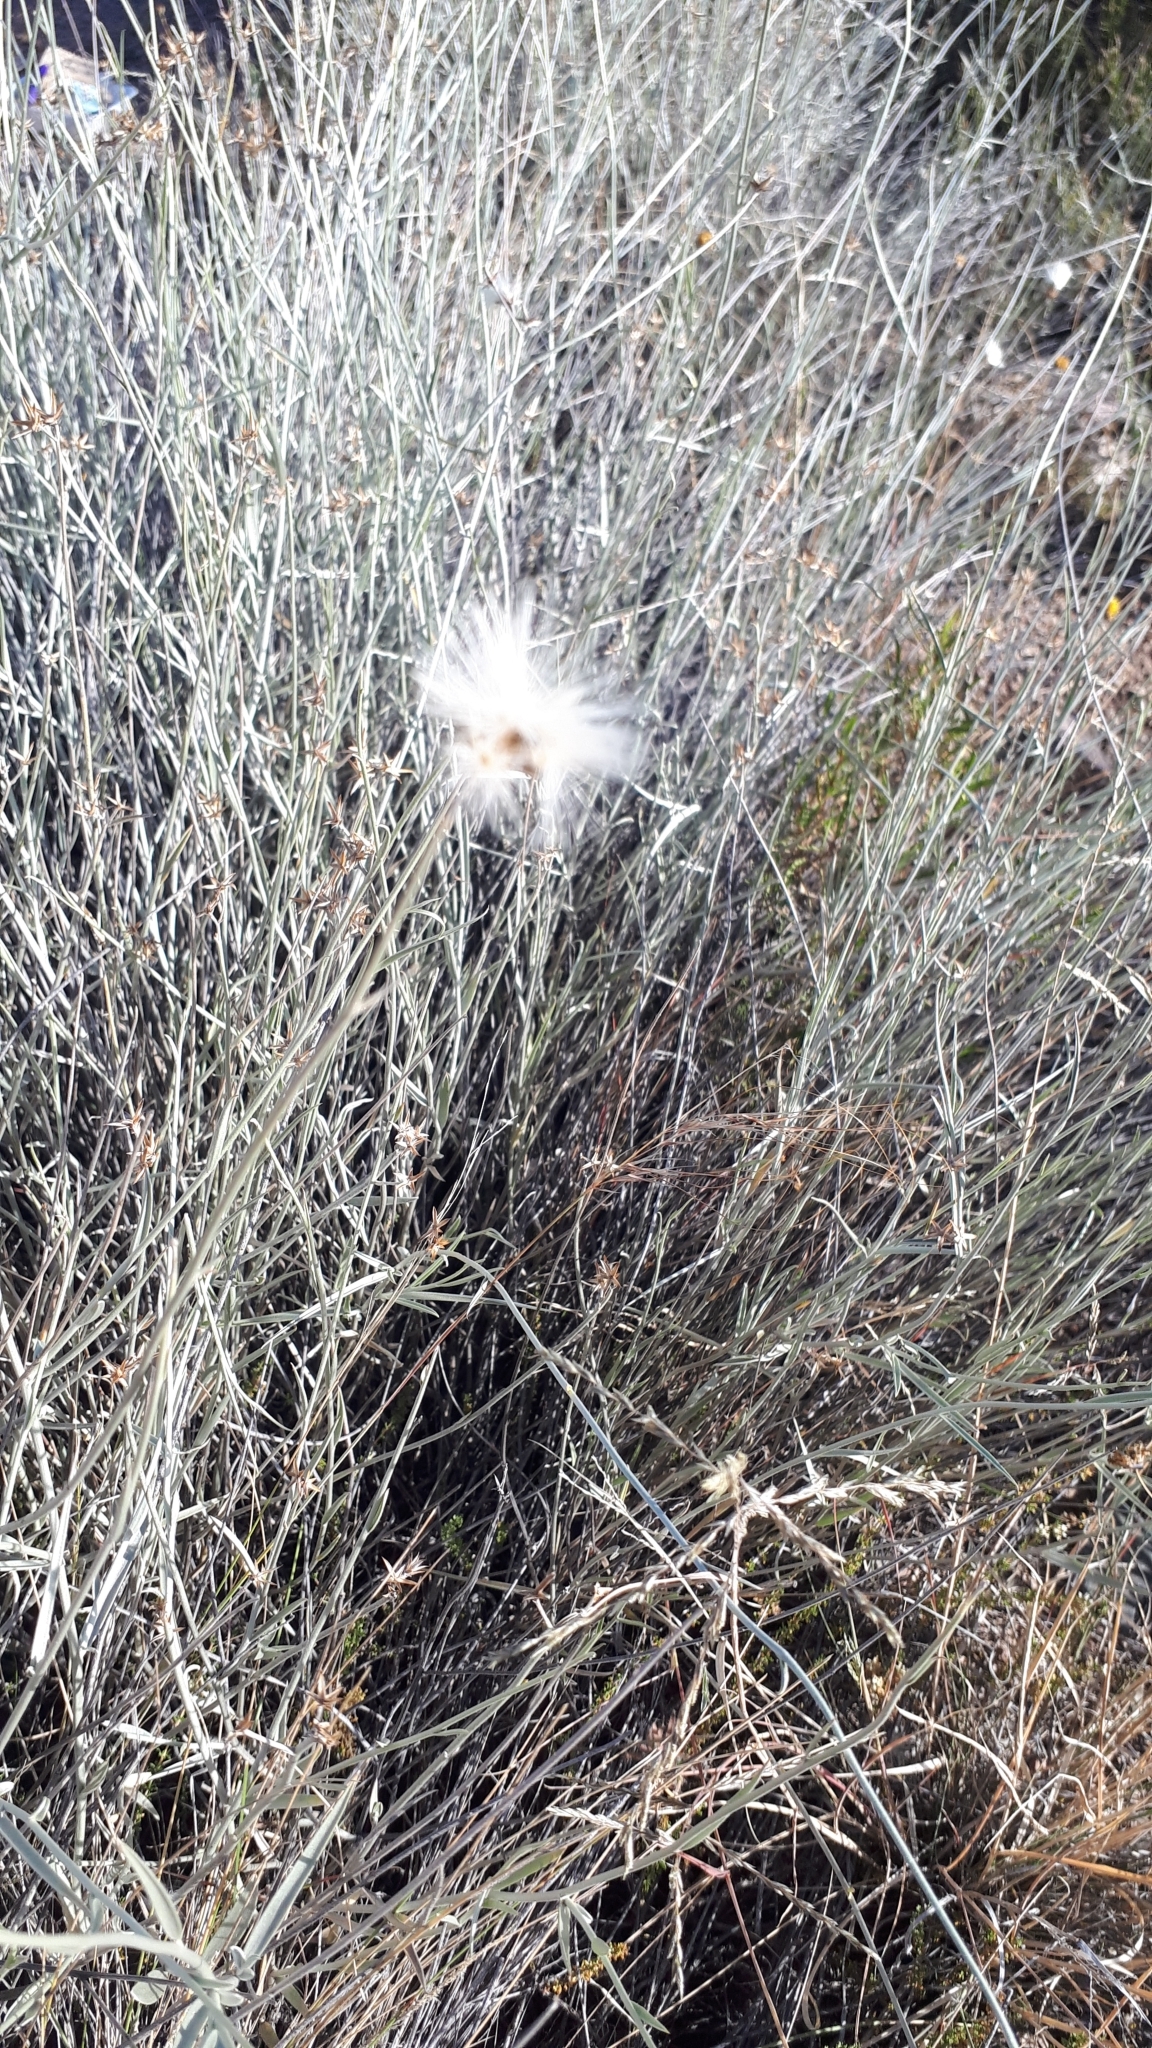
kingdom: Plantae
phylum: Tracheophyta
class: Magnoliopsida
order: Asterales
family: Asteraceae
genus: Hyalis
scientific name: Hyalis argentea
